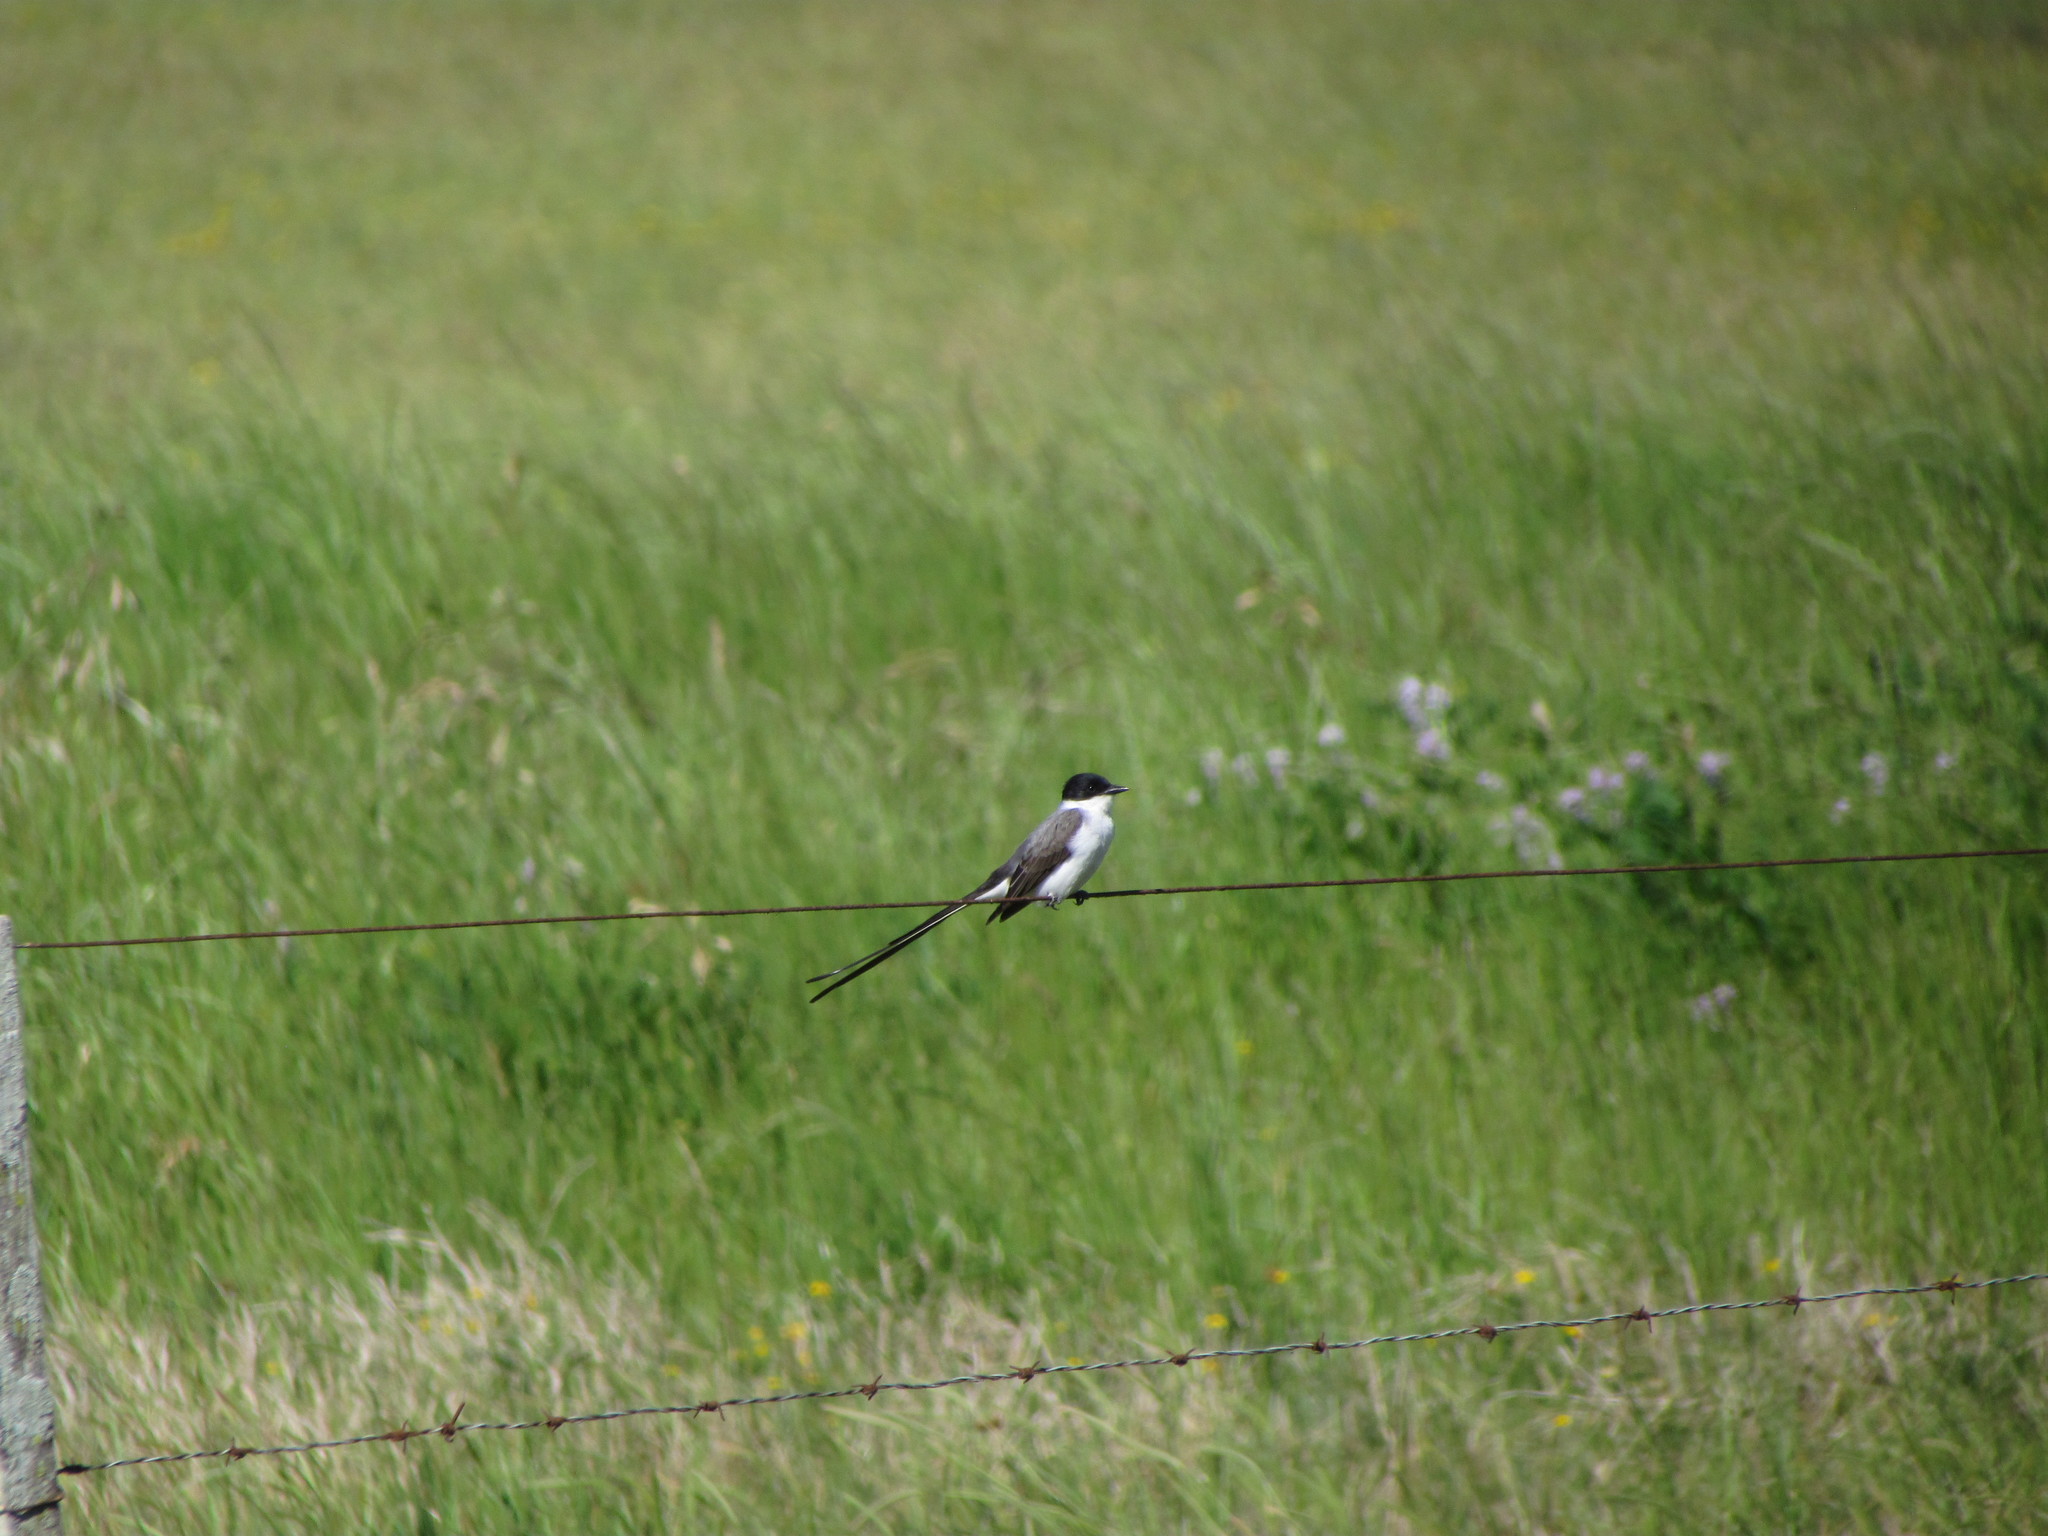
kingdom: Animalia
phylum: Chordata
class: Aves
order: Passeriformes
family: Tyrannidae
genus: Tyrannus
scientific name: Tyrannus savana
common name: Fork-tailed flycatcher
